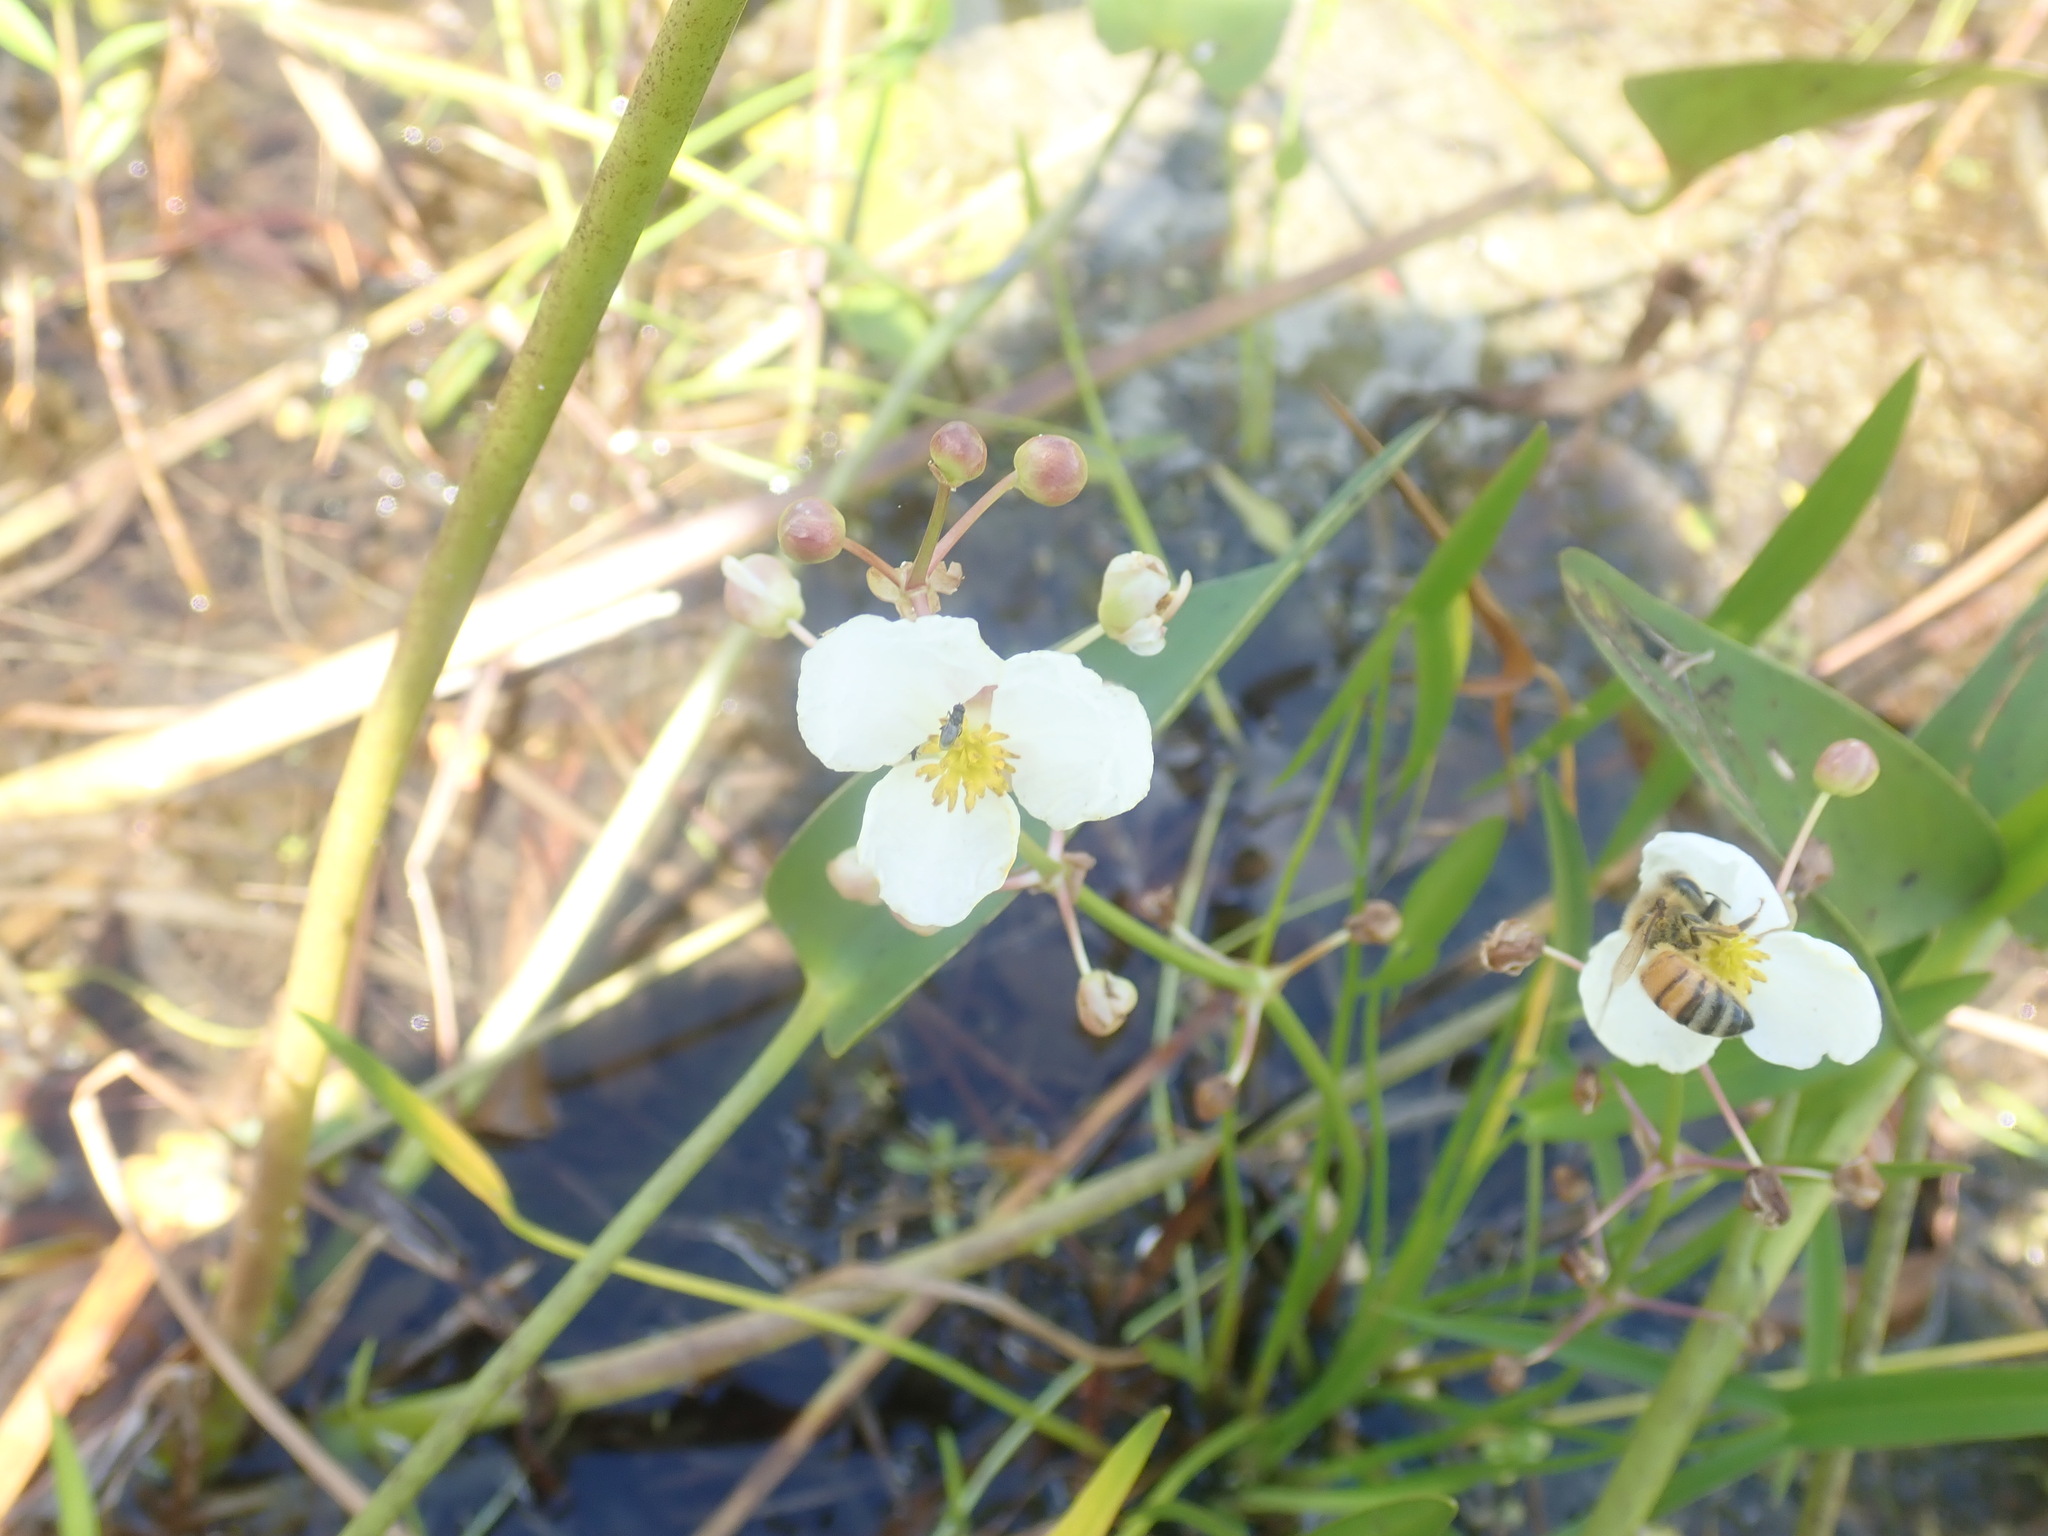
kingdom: Plantae
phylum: Tracheophyta
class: Liliopsida
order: Alismatales
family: Alismataceae
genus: Sagittaria
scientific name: Sagittaria latifolia
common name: Duck-potato
